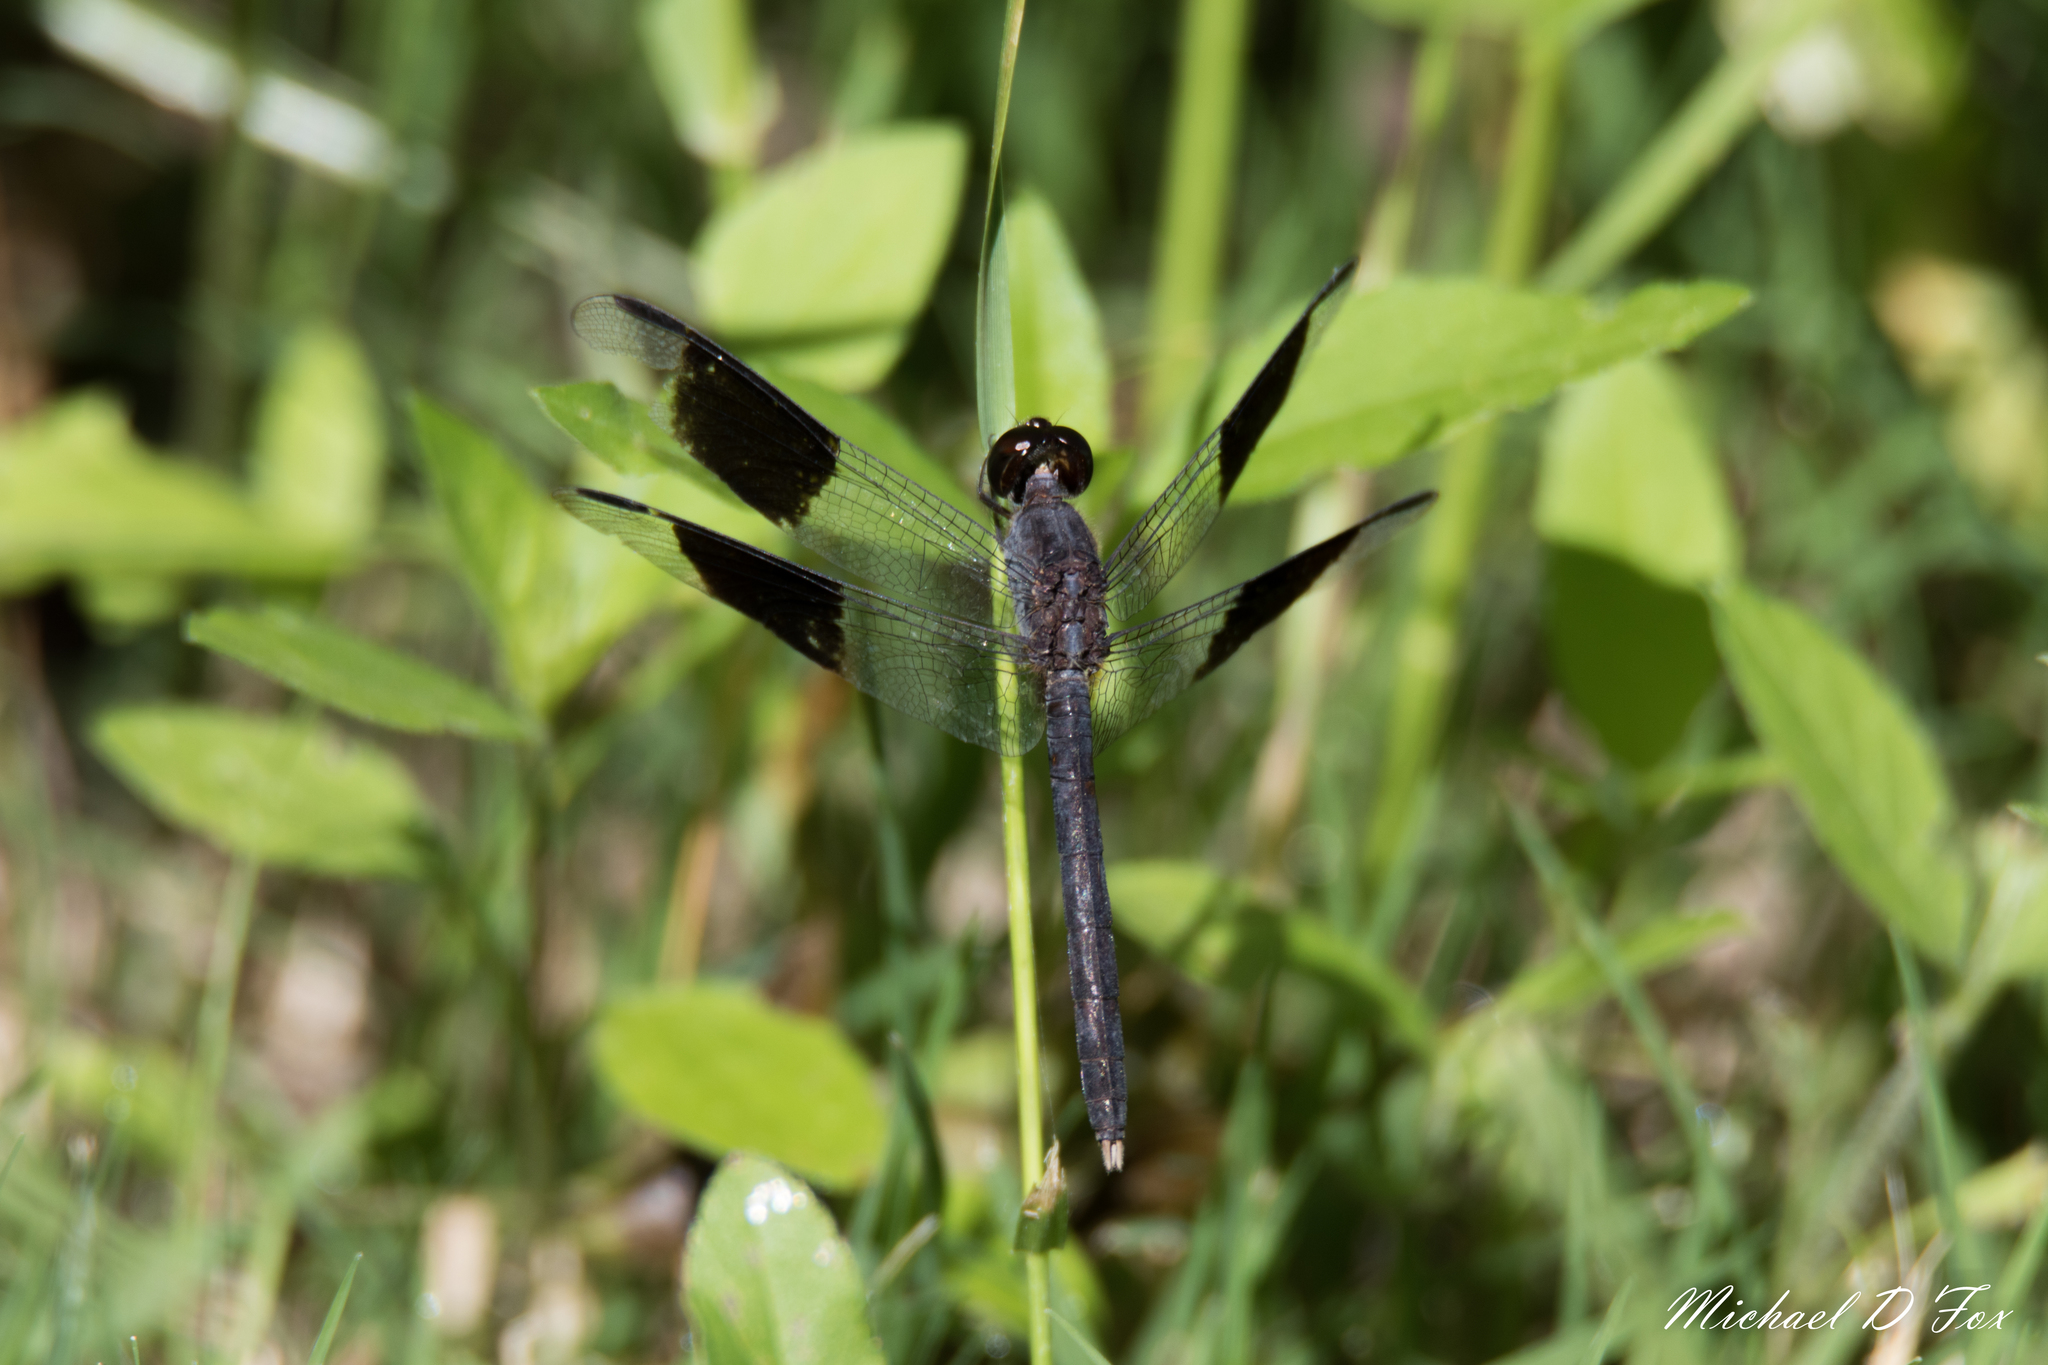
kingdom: Animalia
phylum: Arthropoda
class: Insecta
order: Odonata
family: Libellulidae
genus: Erythrodiplax
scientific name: Erythrodiplax umbrata
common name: Band-winged dragonlet
